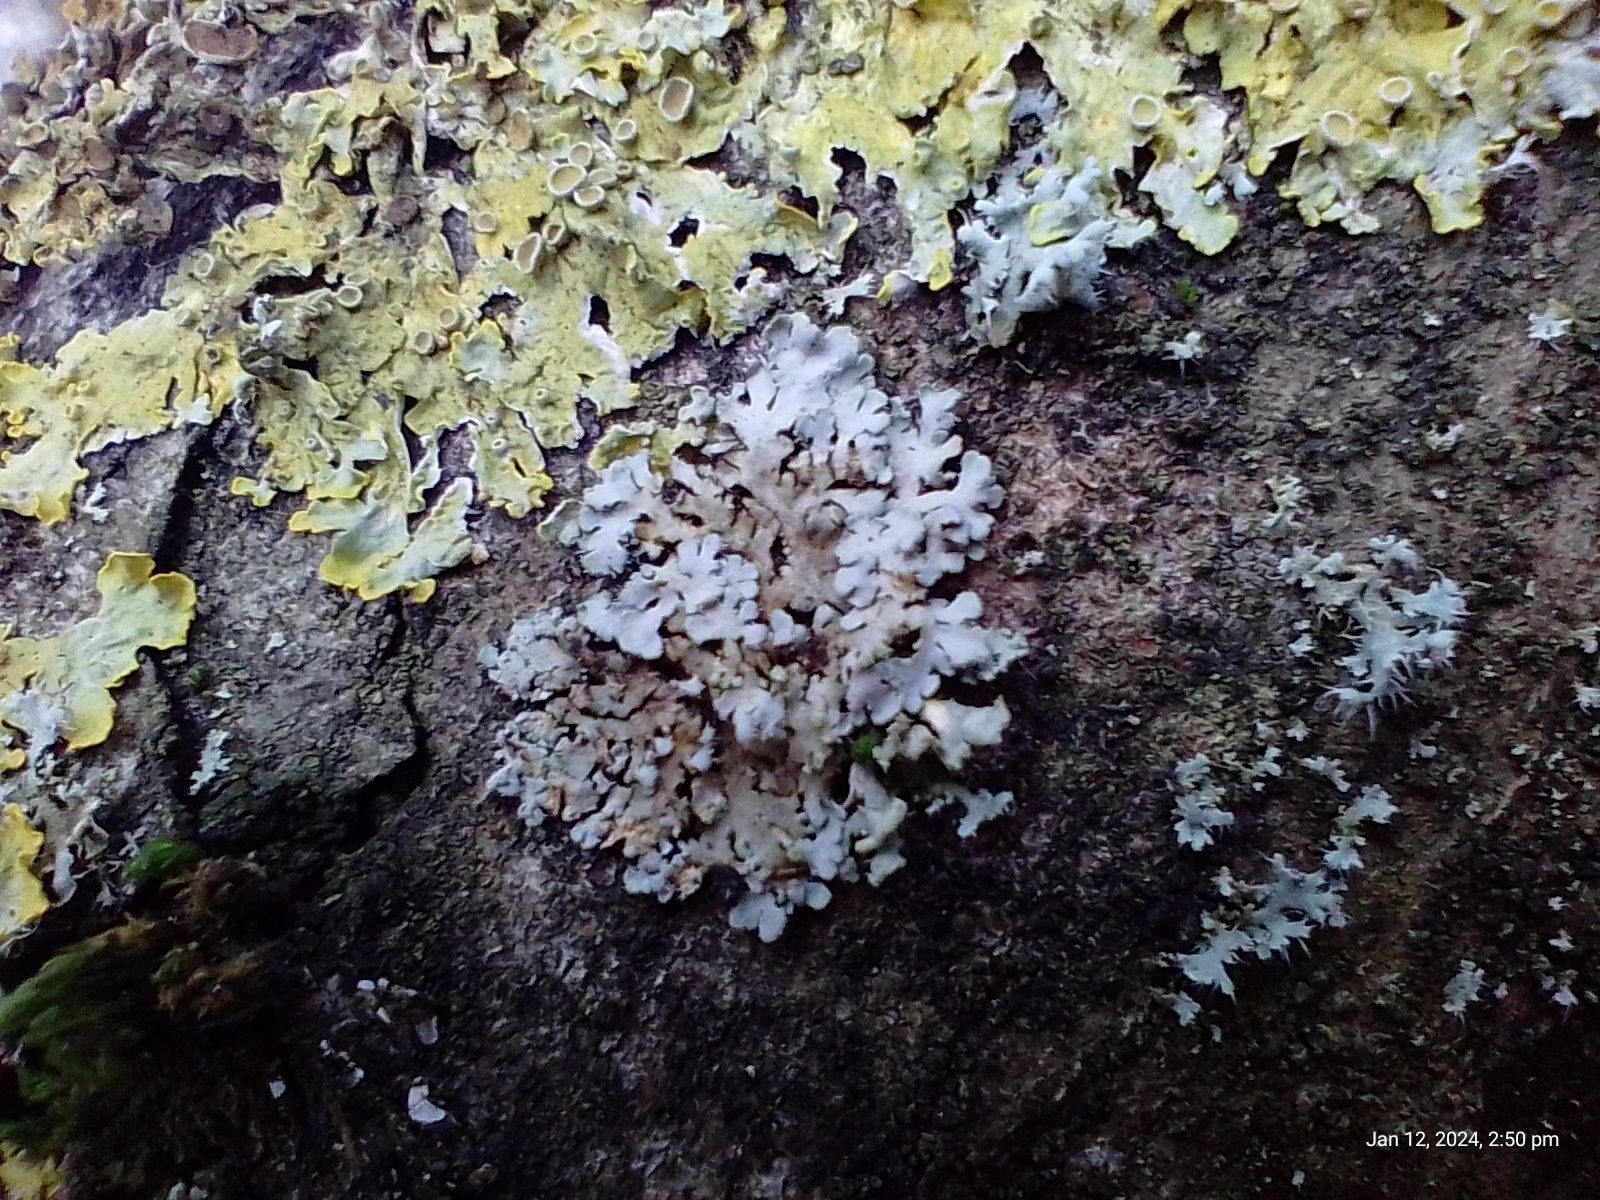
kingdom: Fungi
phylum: Ascomycota
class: Lecanoromycetes
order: Caliciales
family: Physciaceae
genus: Phaeophyscia
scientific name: Phaeophyscia orbicularis
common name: Mealy shadow lichen
